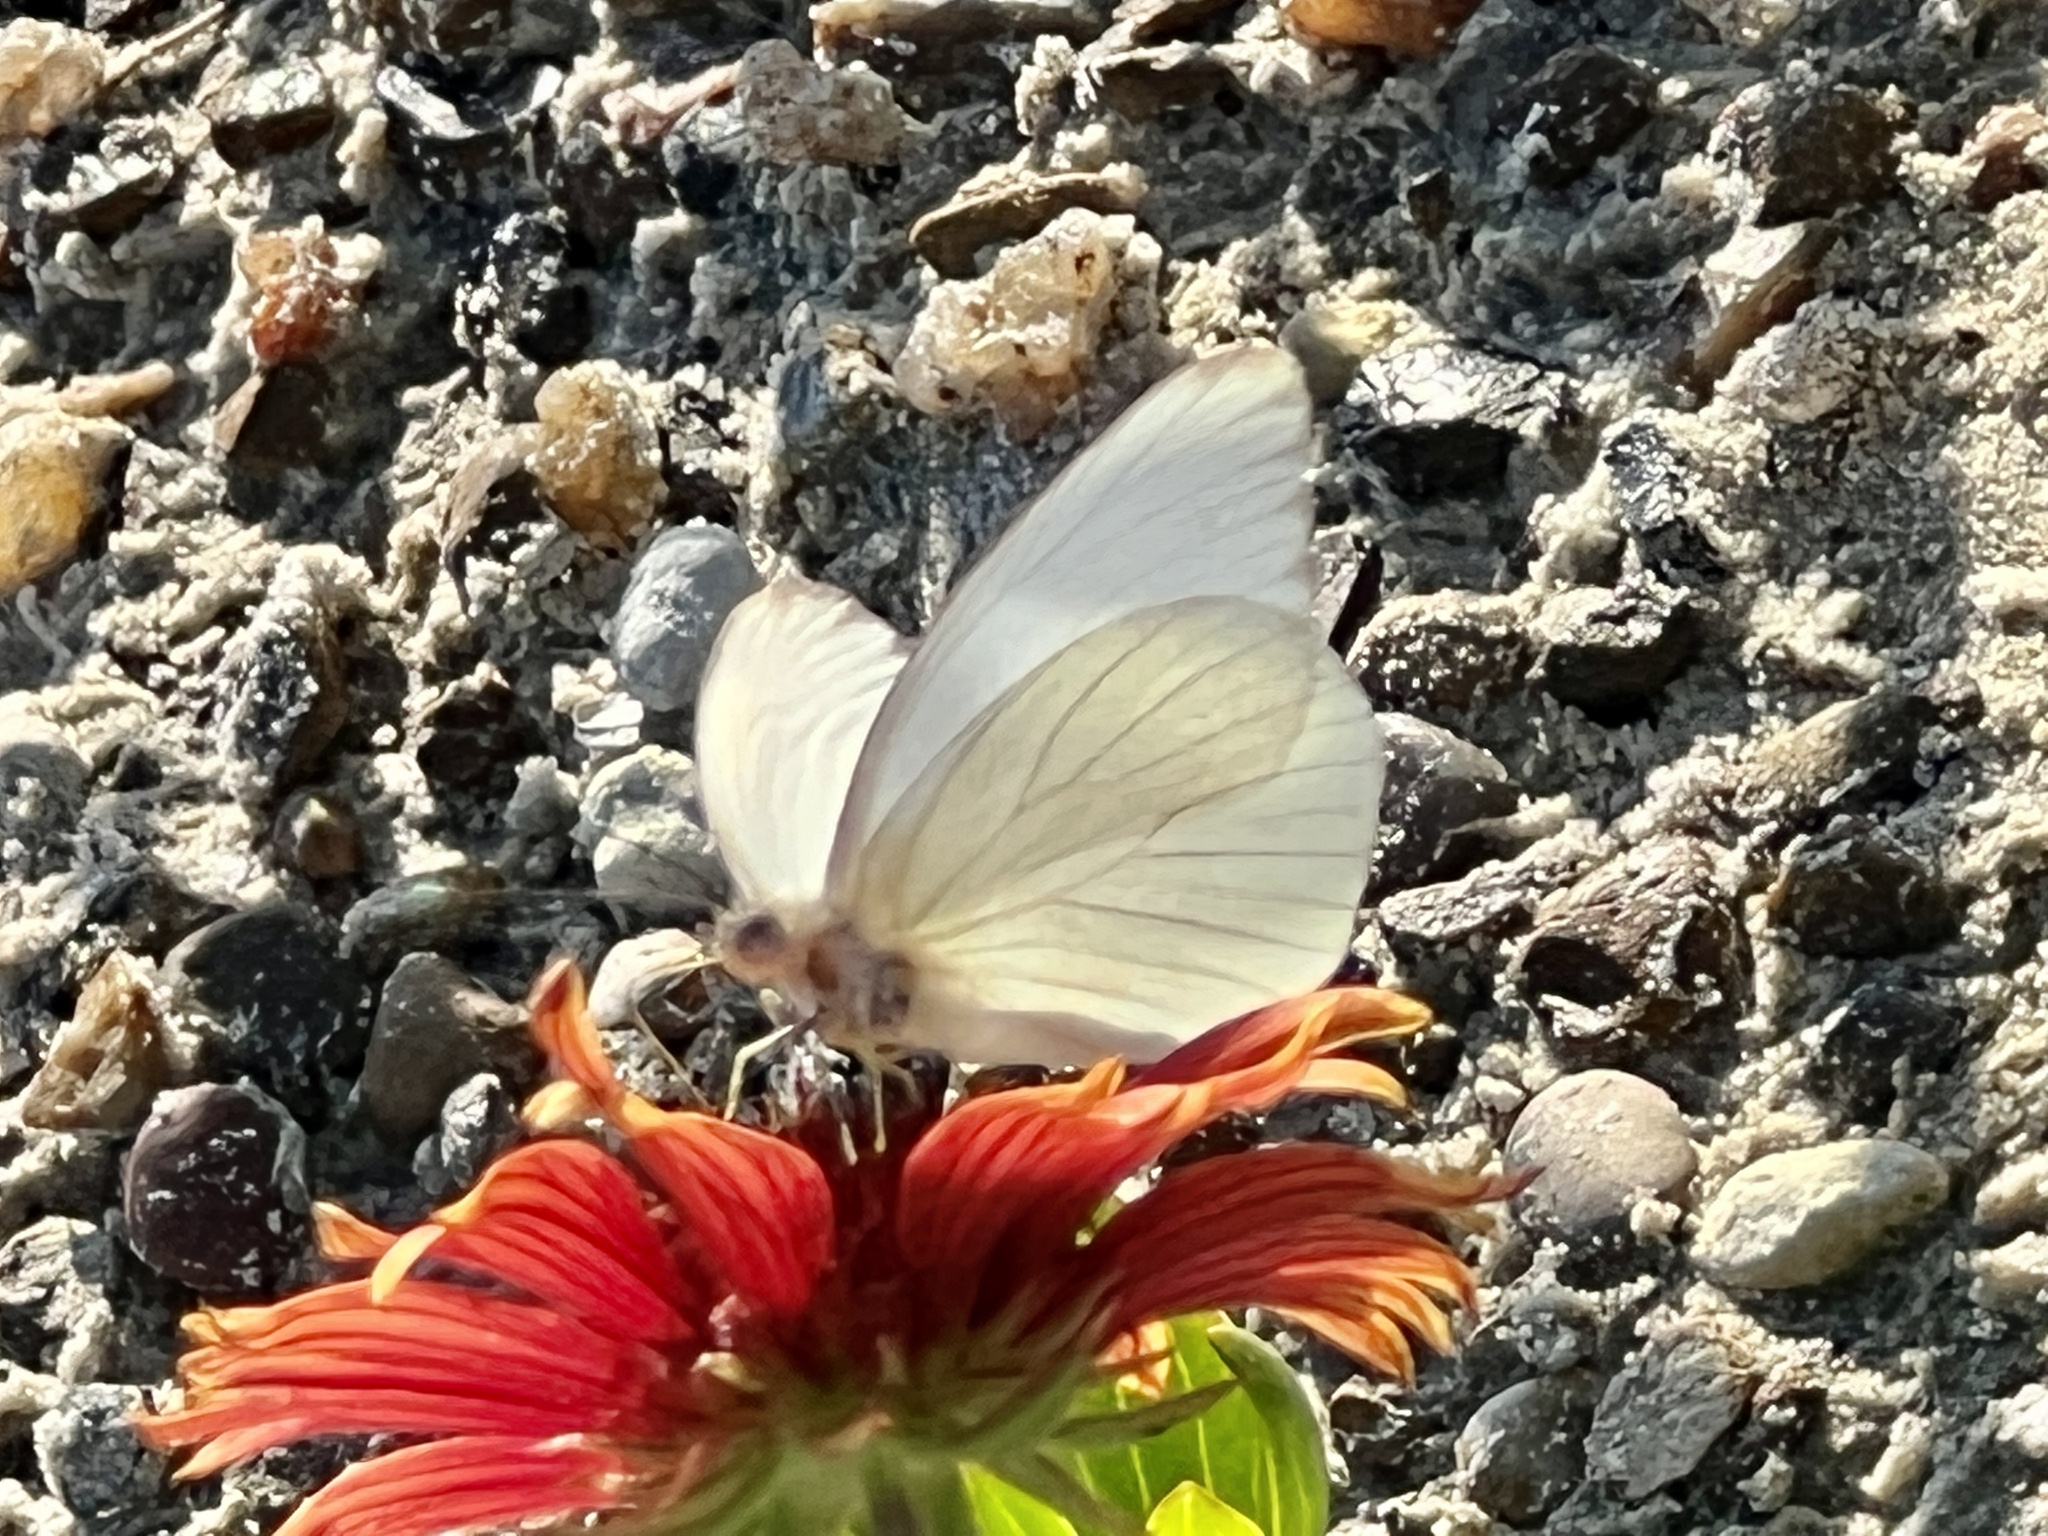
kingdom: Animalia
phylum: Arthropoda
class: Insecta
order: Lepidoptera
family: Pieridae
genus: Ascia
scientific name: Ascia monuste
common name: Great southern white
